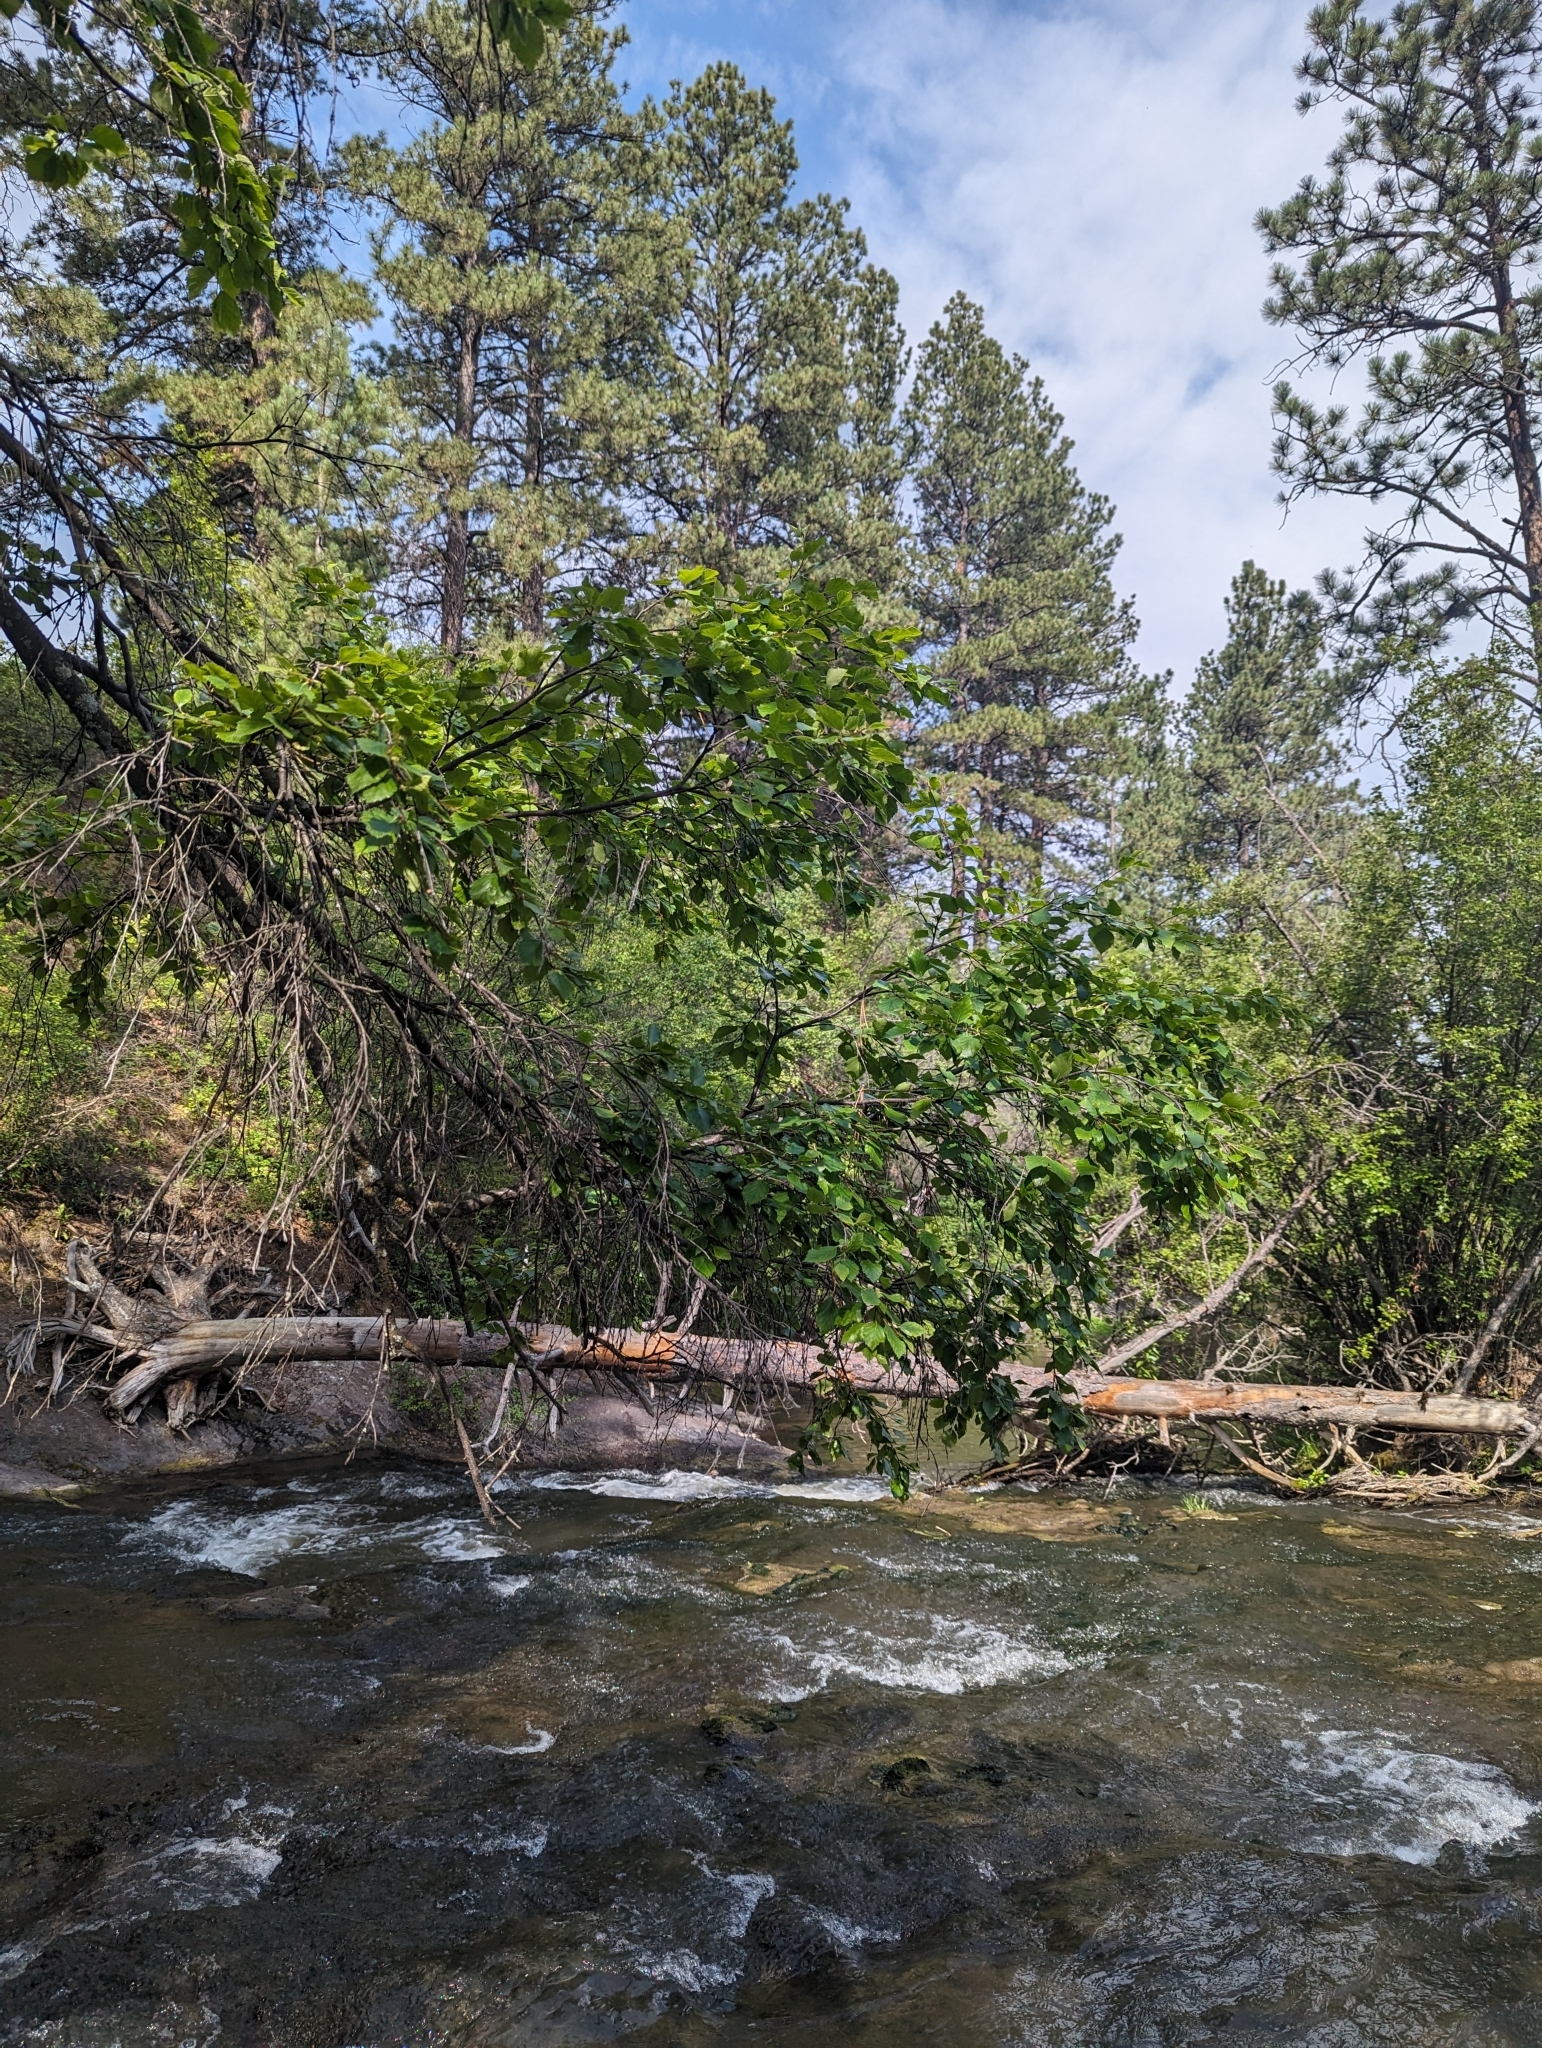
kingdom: Plantae
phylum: Tracheophyta
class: Magnoliopsida
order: Fagales
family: Betulaceae
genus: Betula
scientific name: Betula occidentalis
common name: River birch
